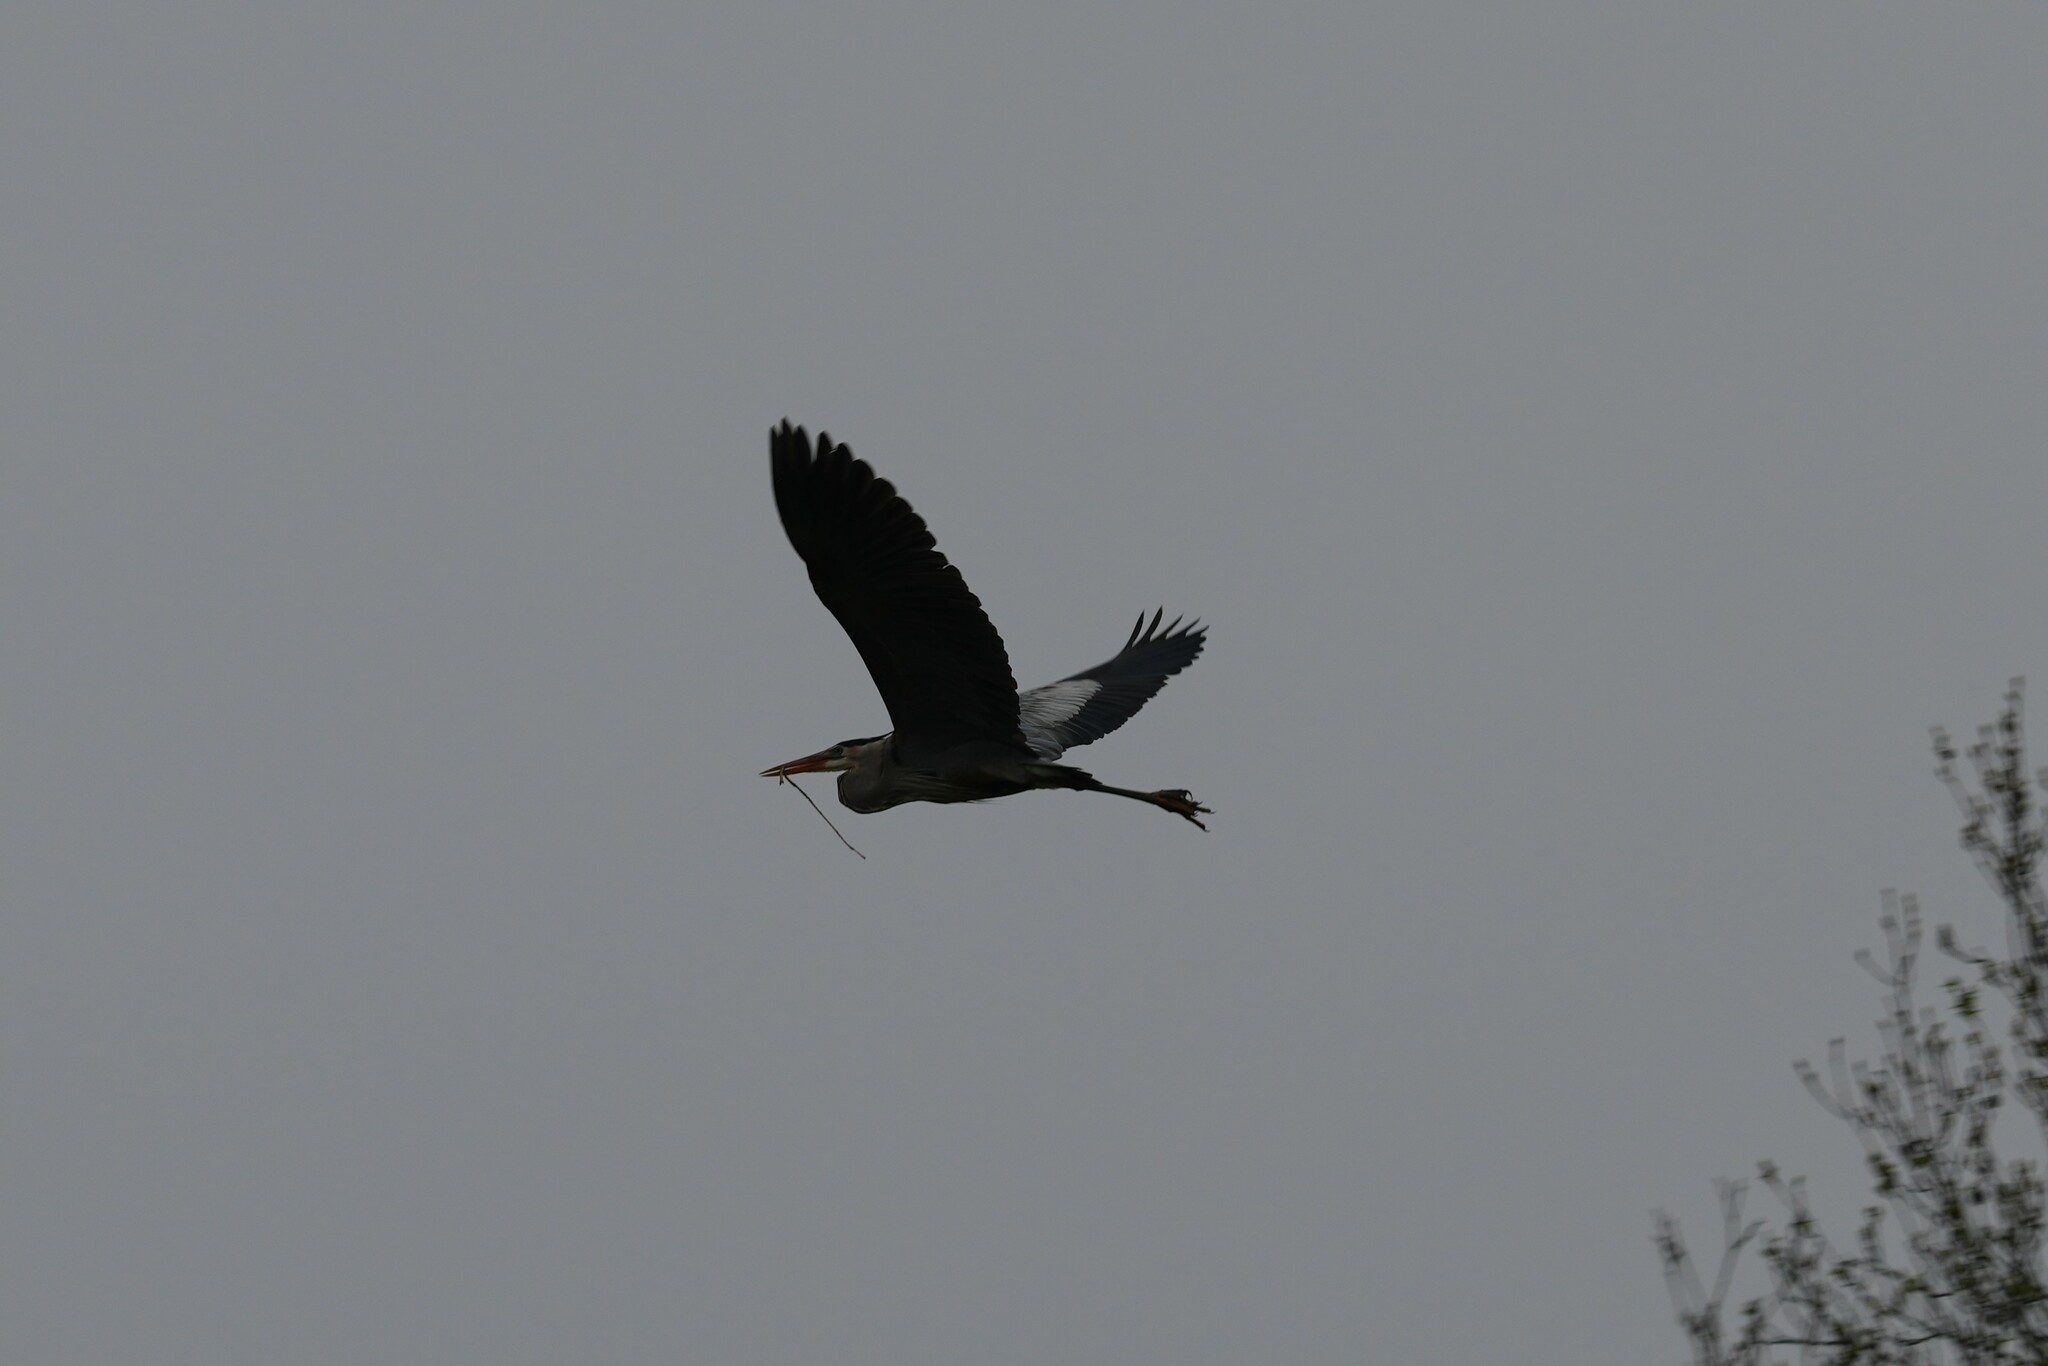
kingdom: Animalia
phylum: Chordata
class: Aves
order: Pelecaniformes
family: Ardeidae
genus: Ardea
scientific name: Ardea herodias
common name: Great blue heron
